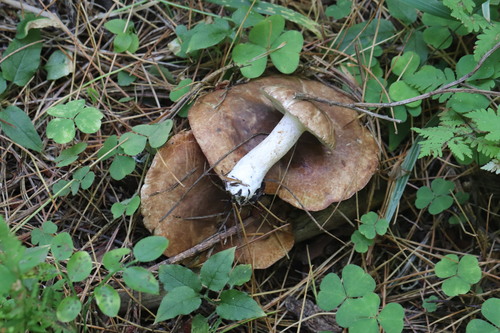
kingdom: Fungi
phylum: Basidiomycota
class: Agaricomycetes
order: Boletales
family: Suillaceae
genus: Suillus
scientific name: Suillus placidus
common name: Slippery white bolete
